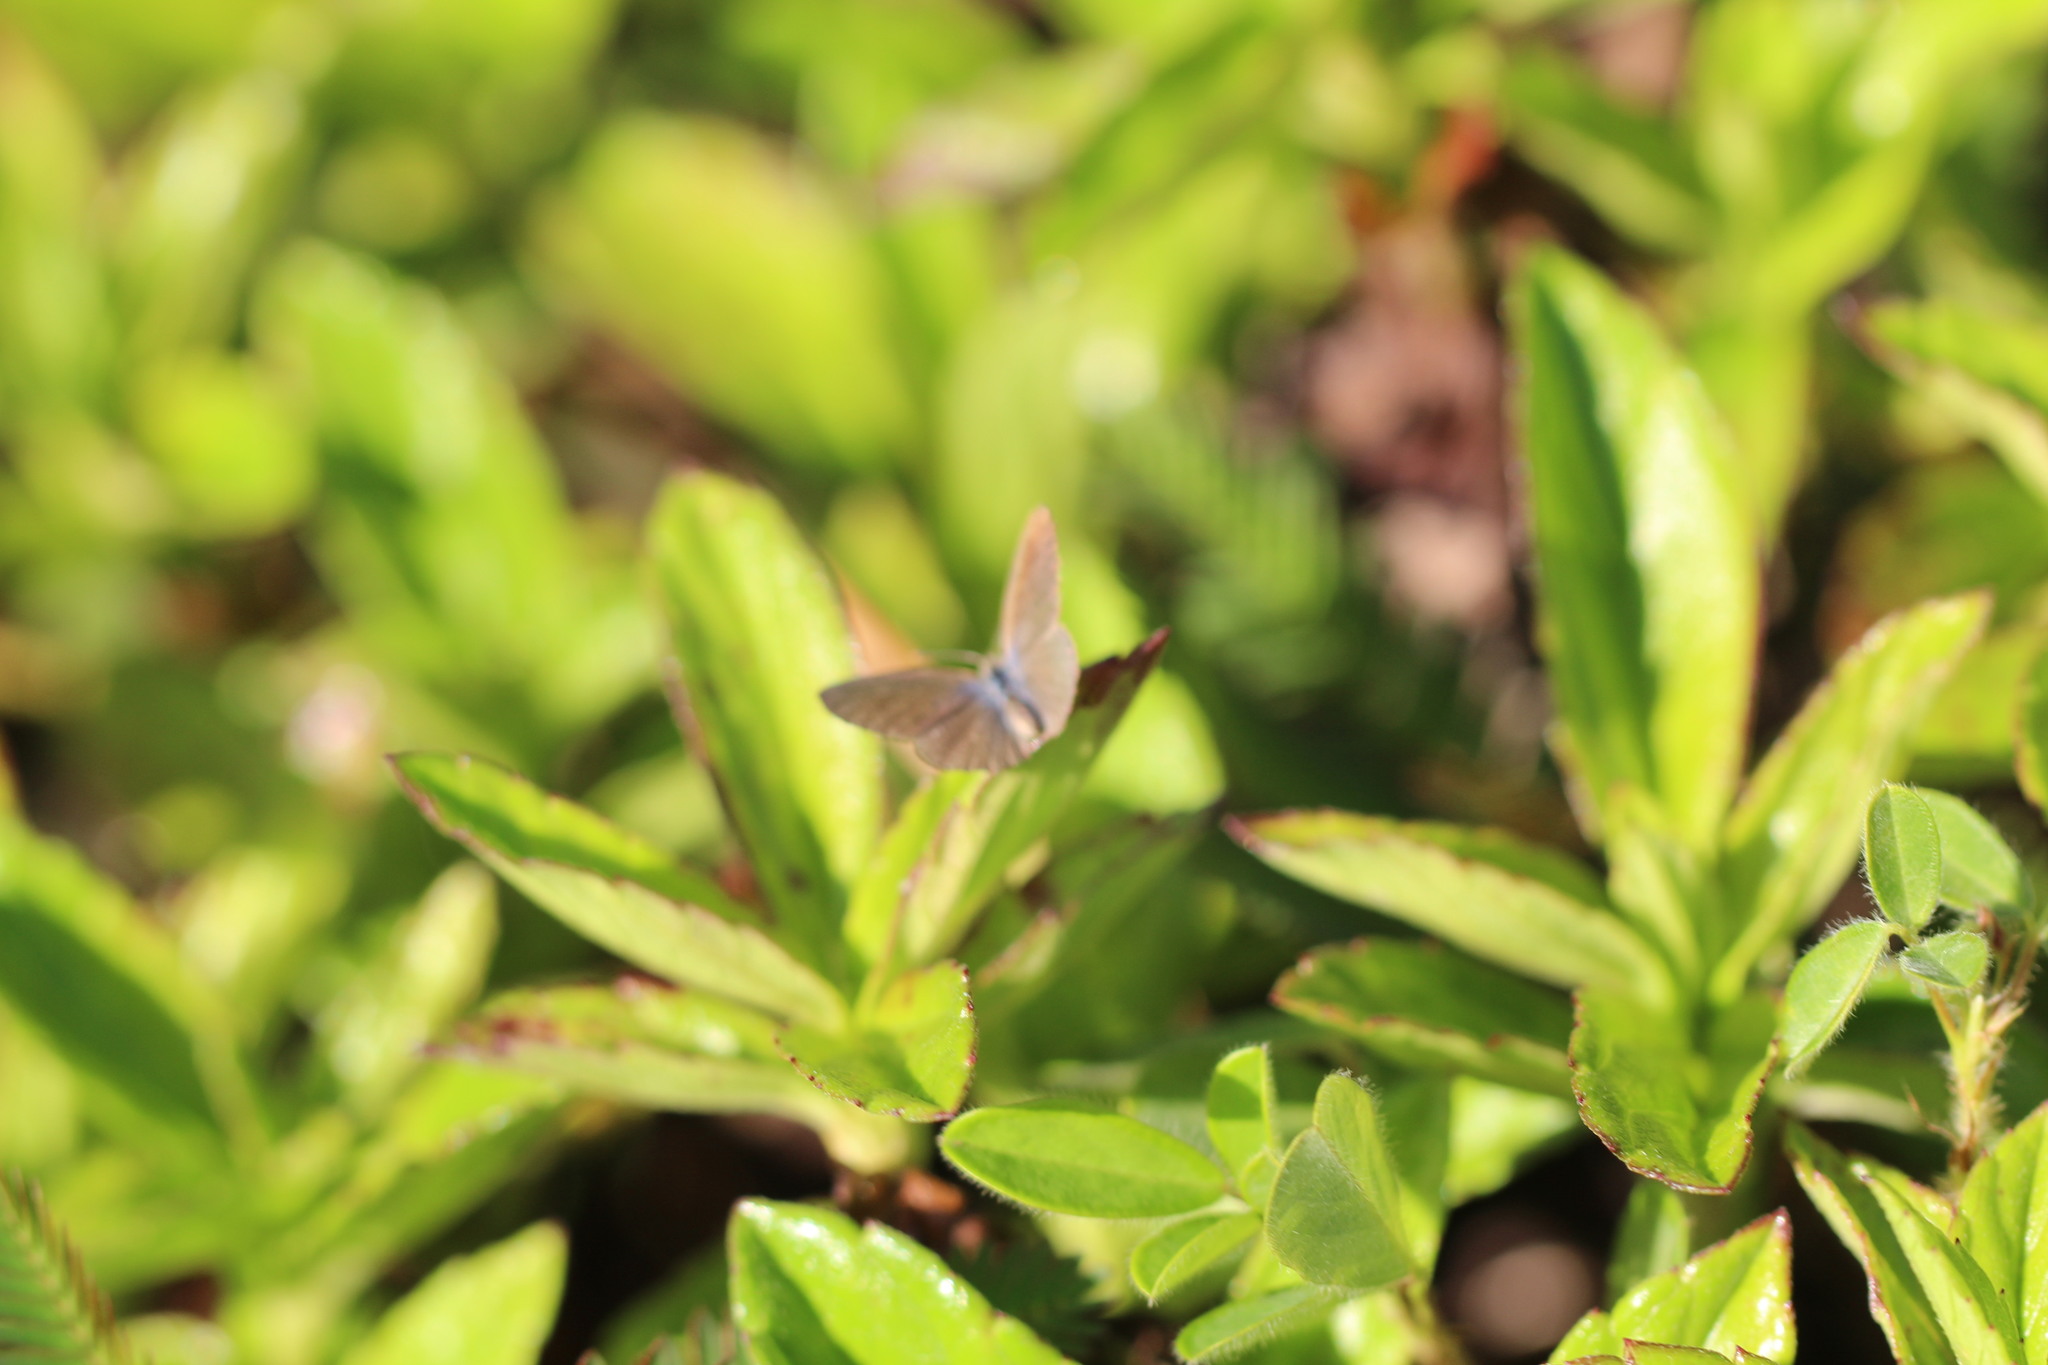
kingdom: Animalia
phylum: Arthropoda
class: Insecta
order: Lepidoptera
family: Lycaenidae
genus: Brephidium
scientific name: Brephidium exilis
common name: Pygmy blue
